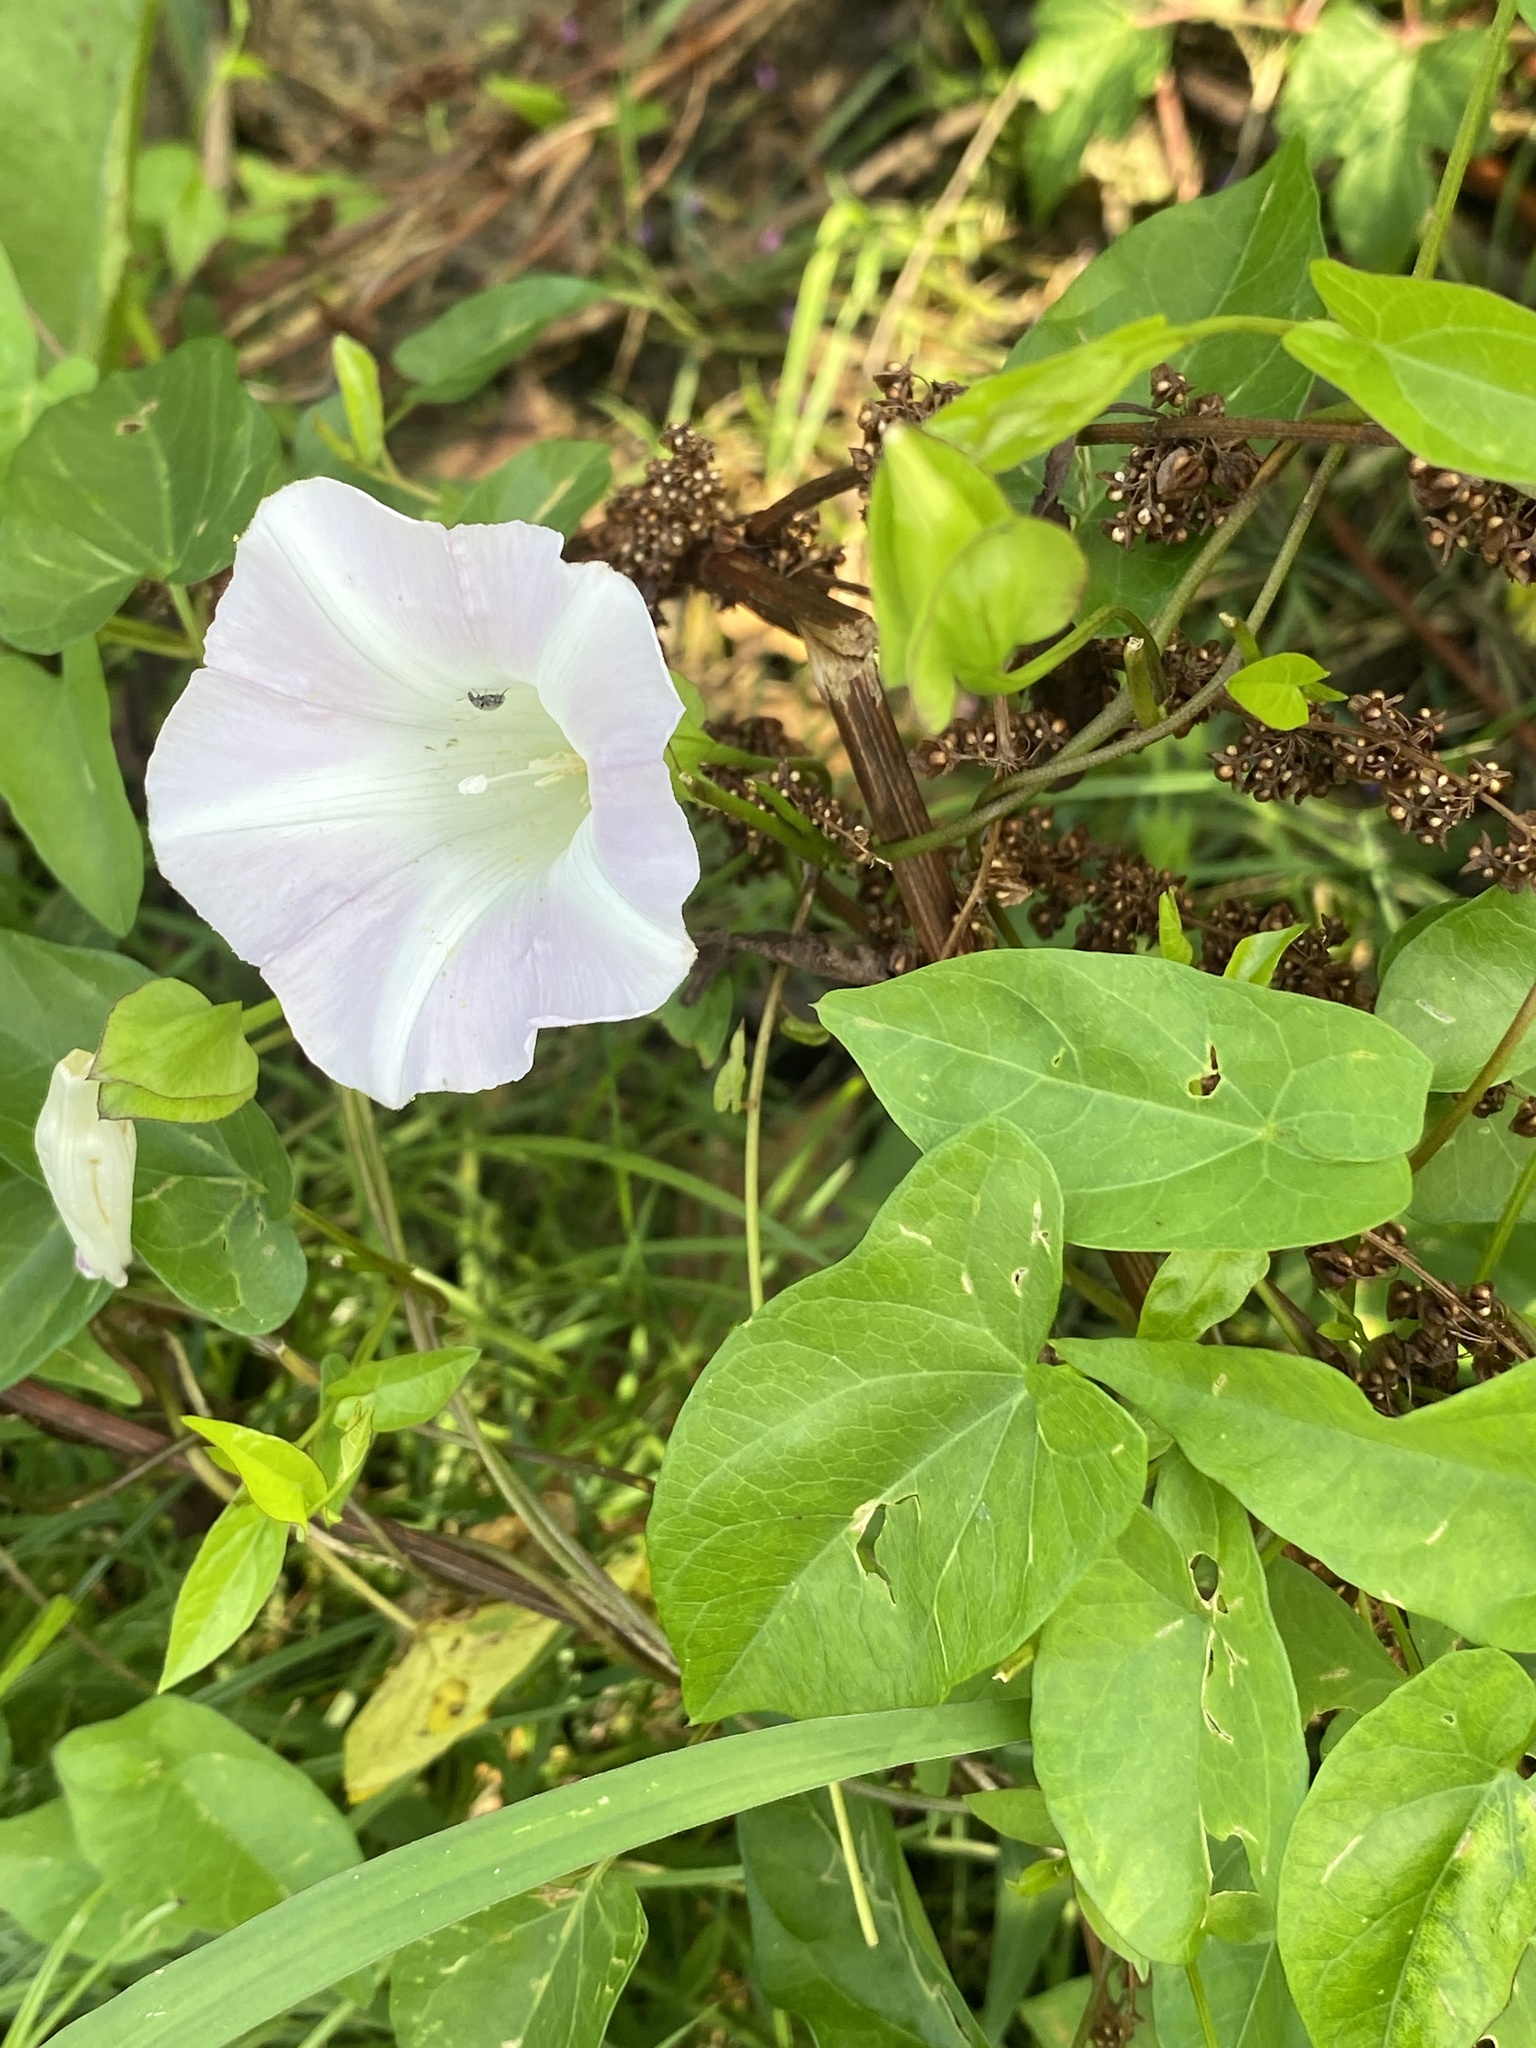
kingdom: Plantae
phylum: Tracheophyta
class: Magnoliopsida
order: Solanales
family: Convolvulaceae
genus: Calystegia
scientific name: Calystegia sepium
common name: Hedge bindweed
